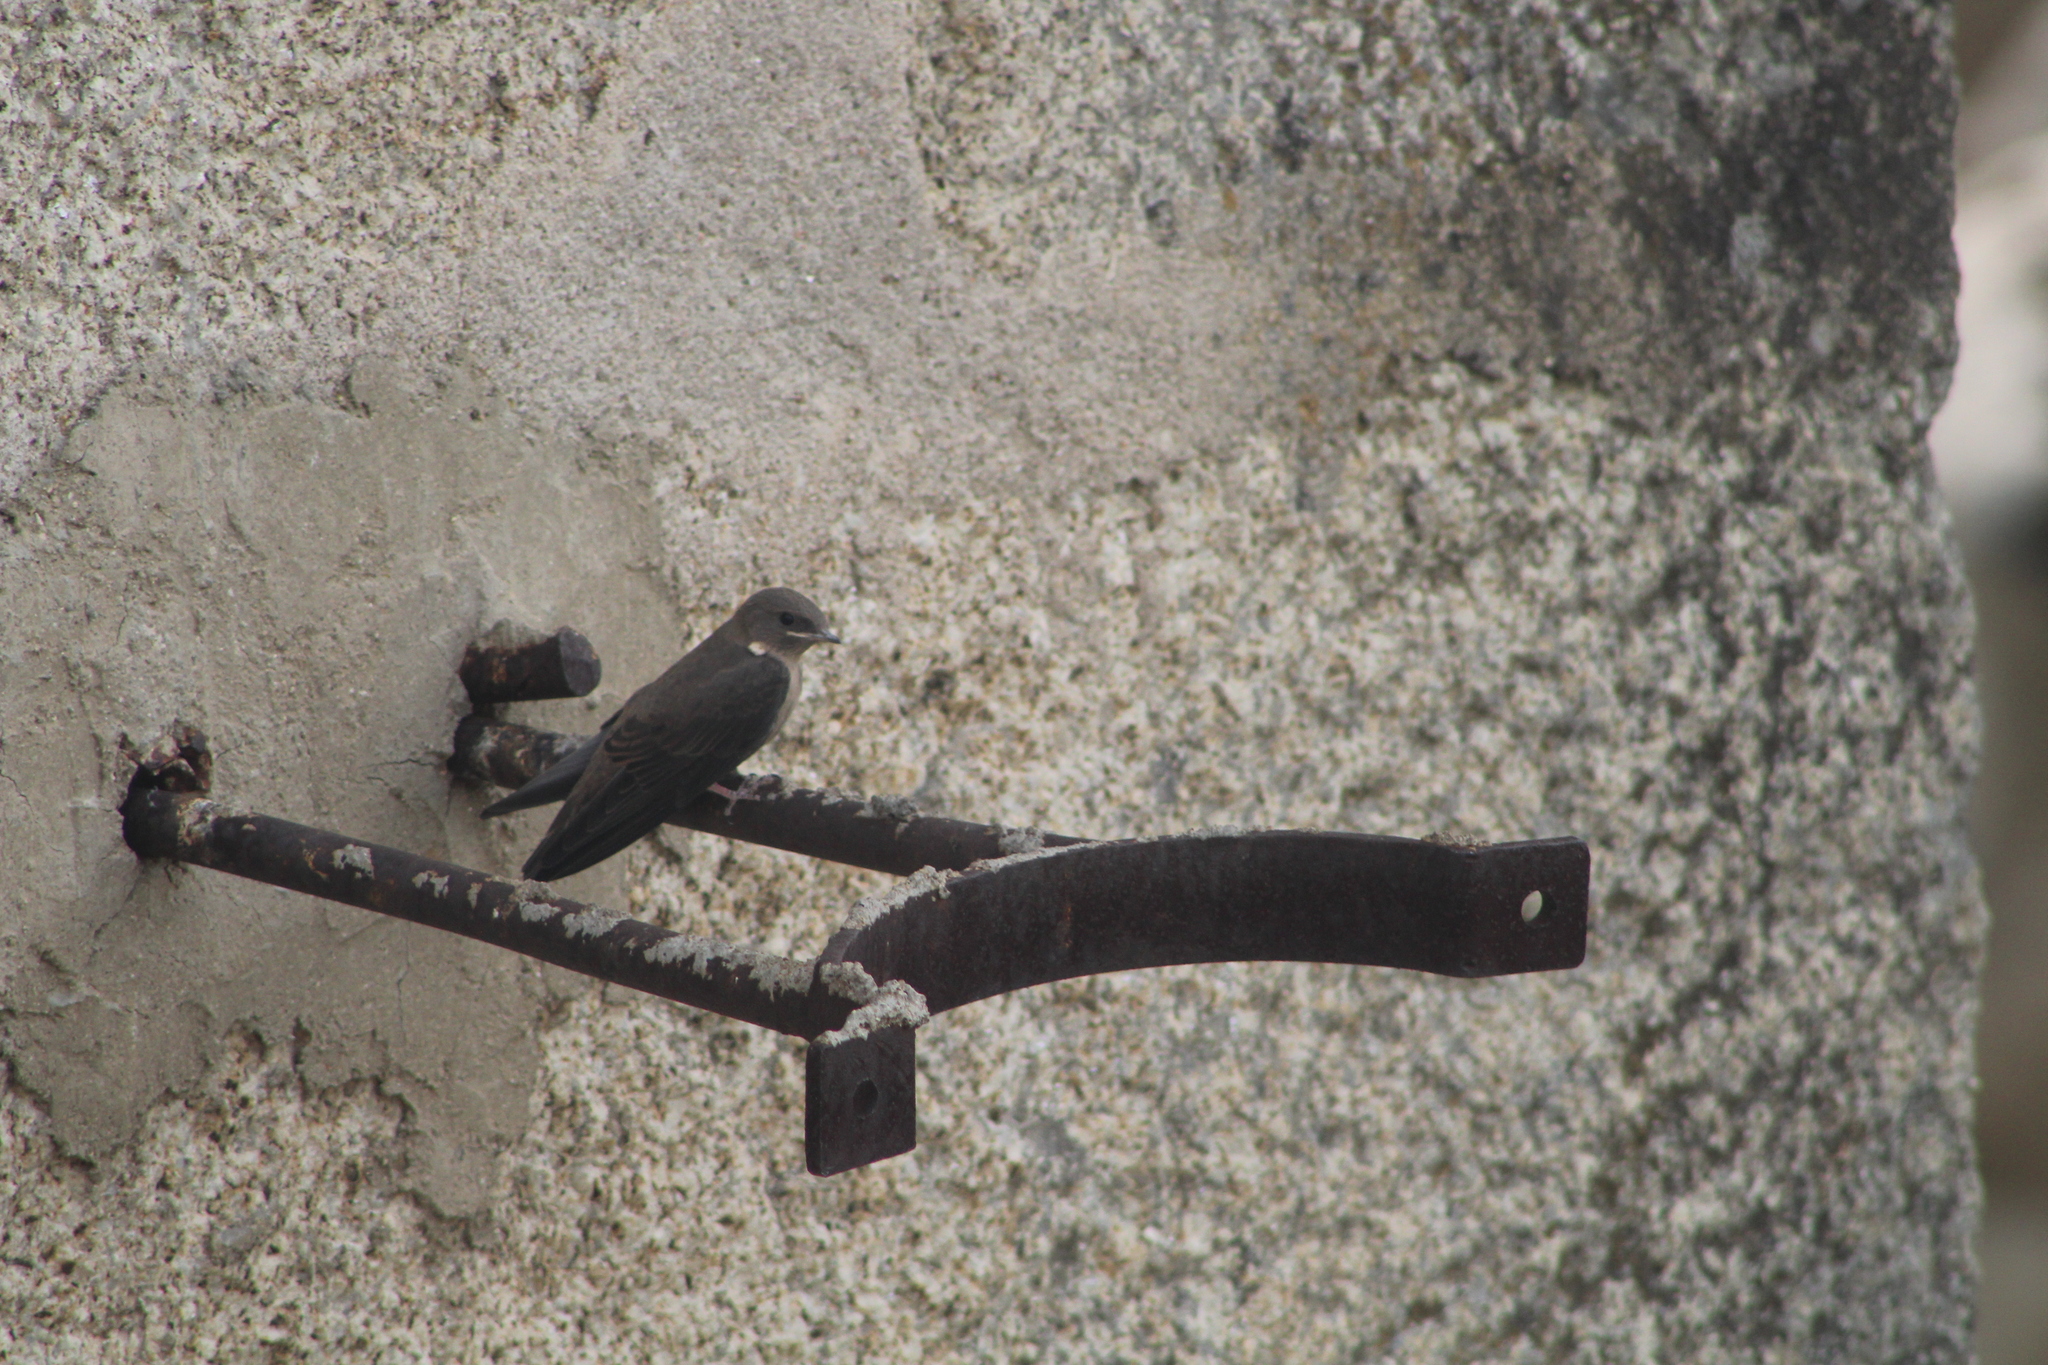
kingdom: Animalia
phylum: Chordata
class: Aves
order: Passeriformes
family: Hirundinidae
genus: Ptyonoprogne
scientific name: Ptyonoprogne rupestris
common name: Eurasian crag martin
